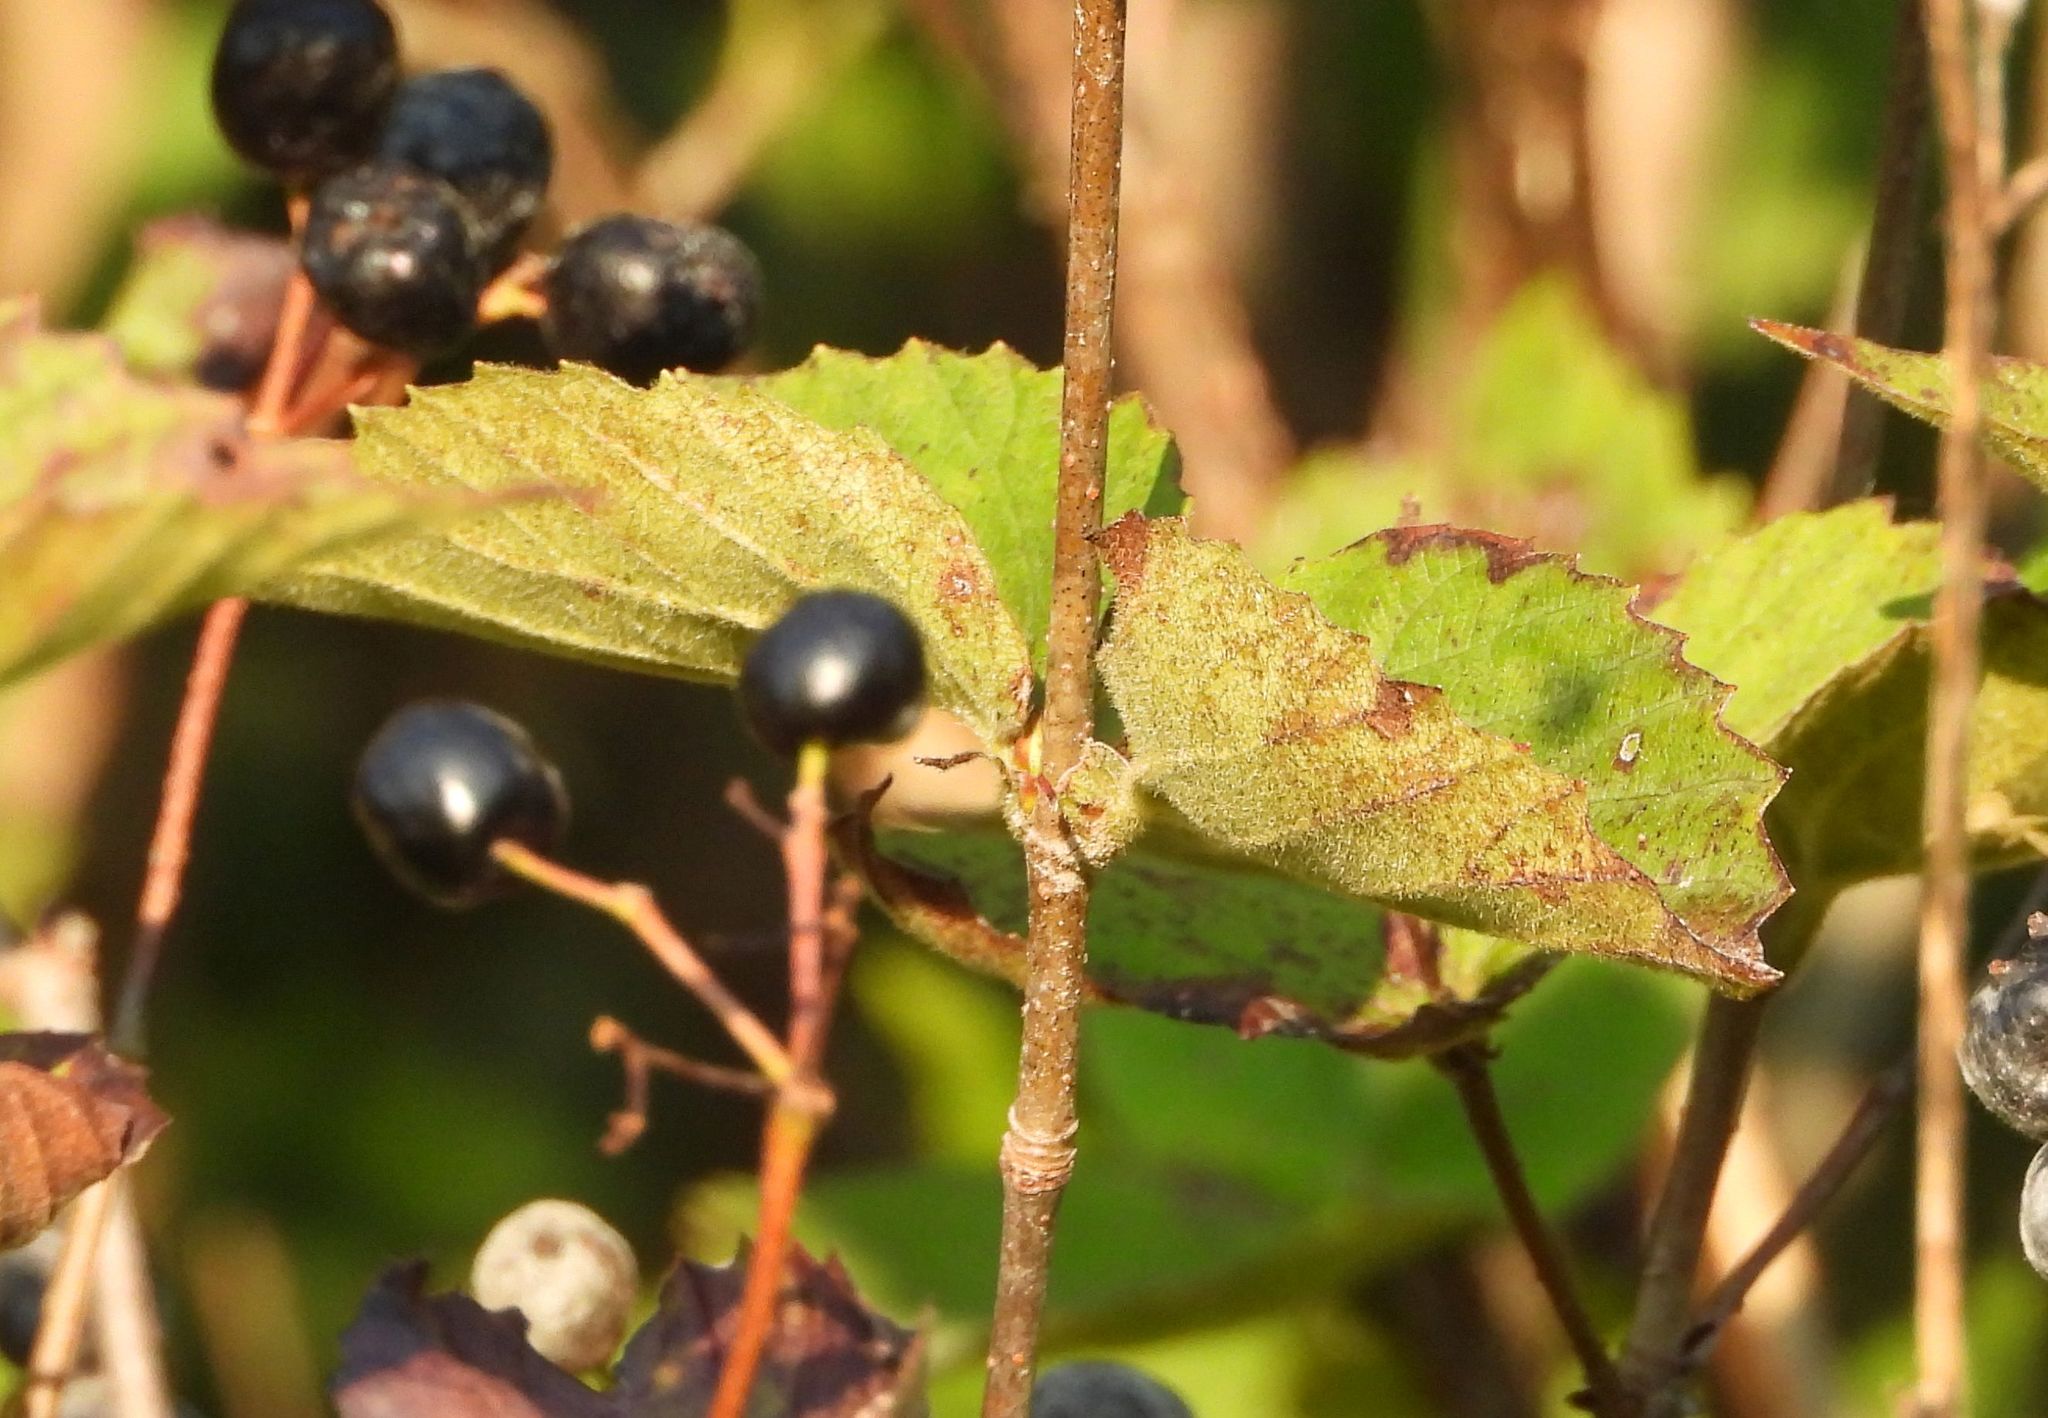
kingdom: Plantae
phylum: Tracheophyta
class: Magnoliopsida
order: Dipsacales
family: Viburnaceae
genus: Viburnum
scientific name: Viburnum rafinesqueanum
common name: Downy arrow-wood
